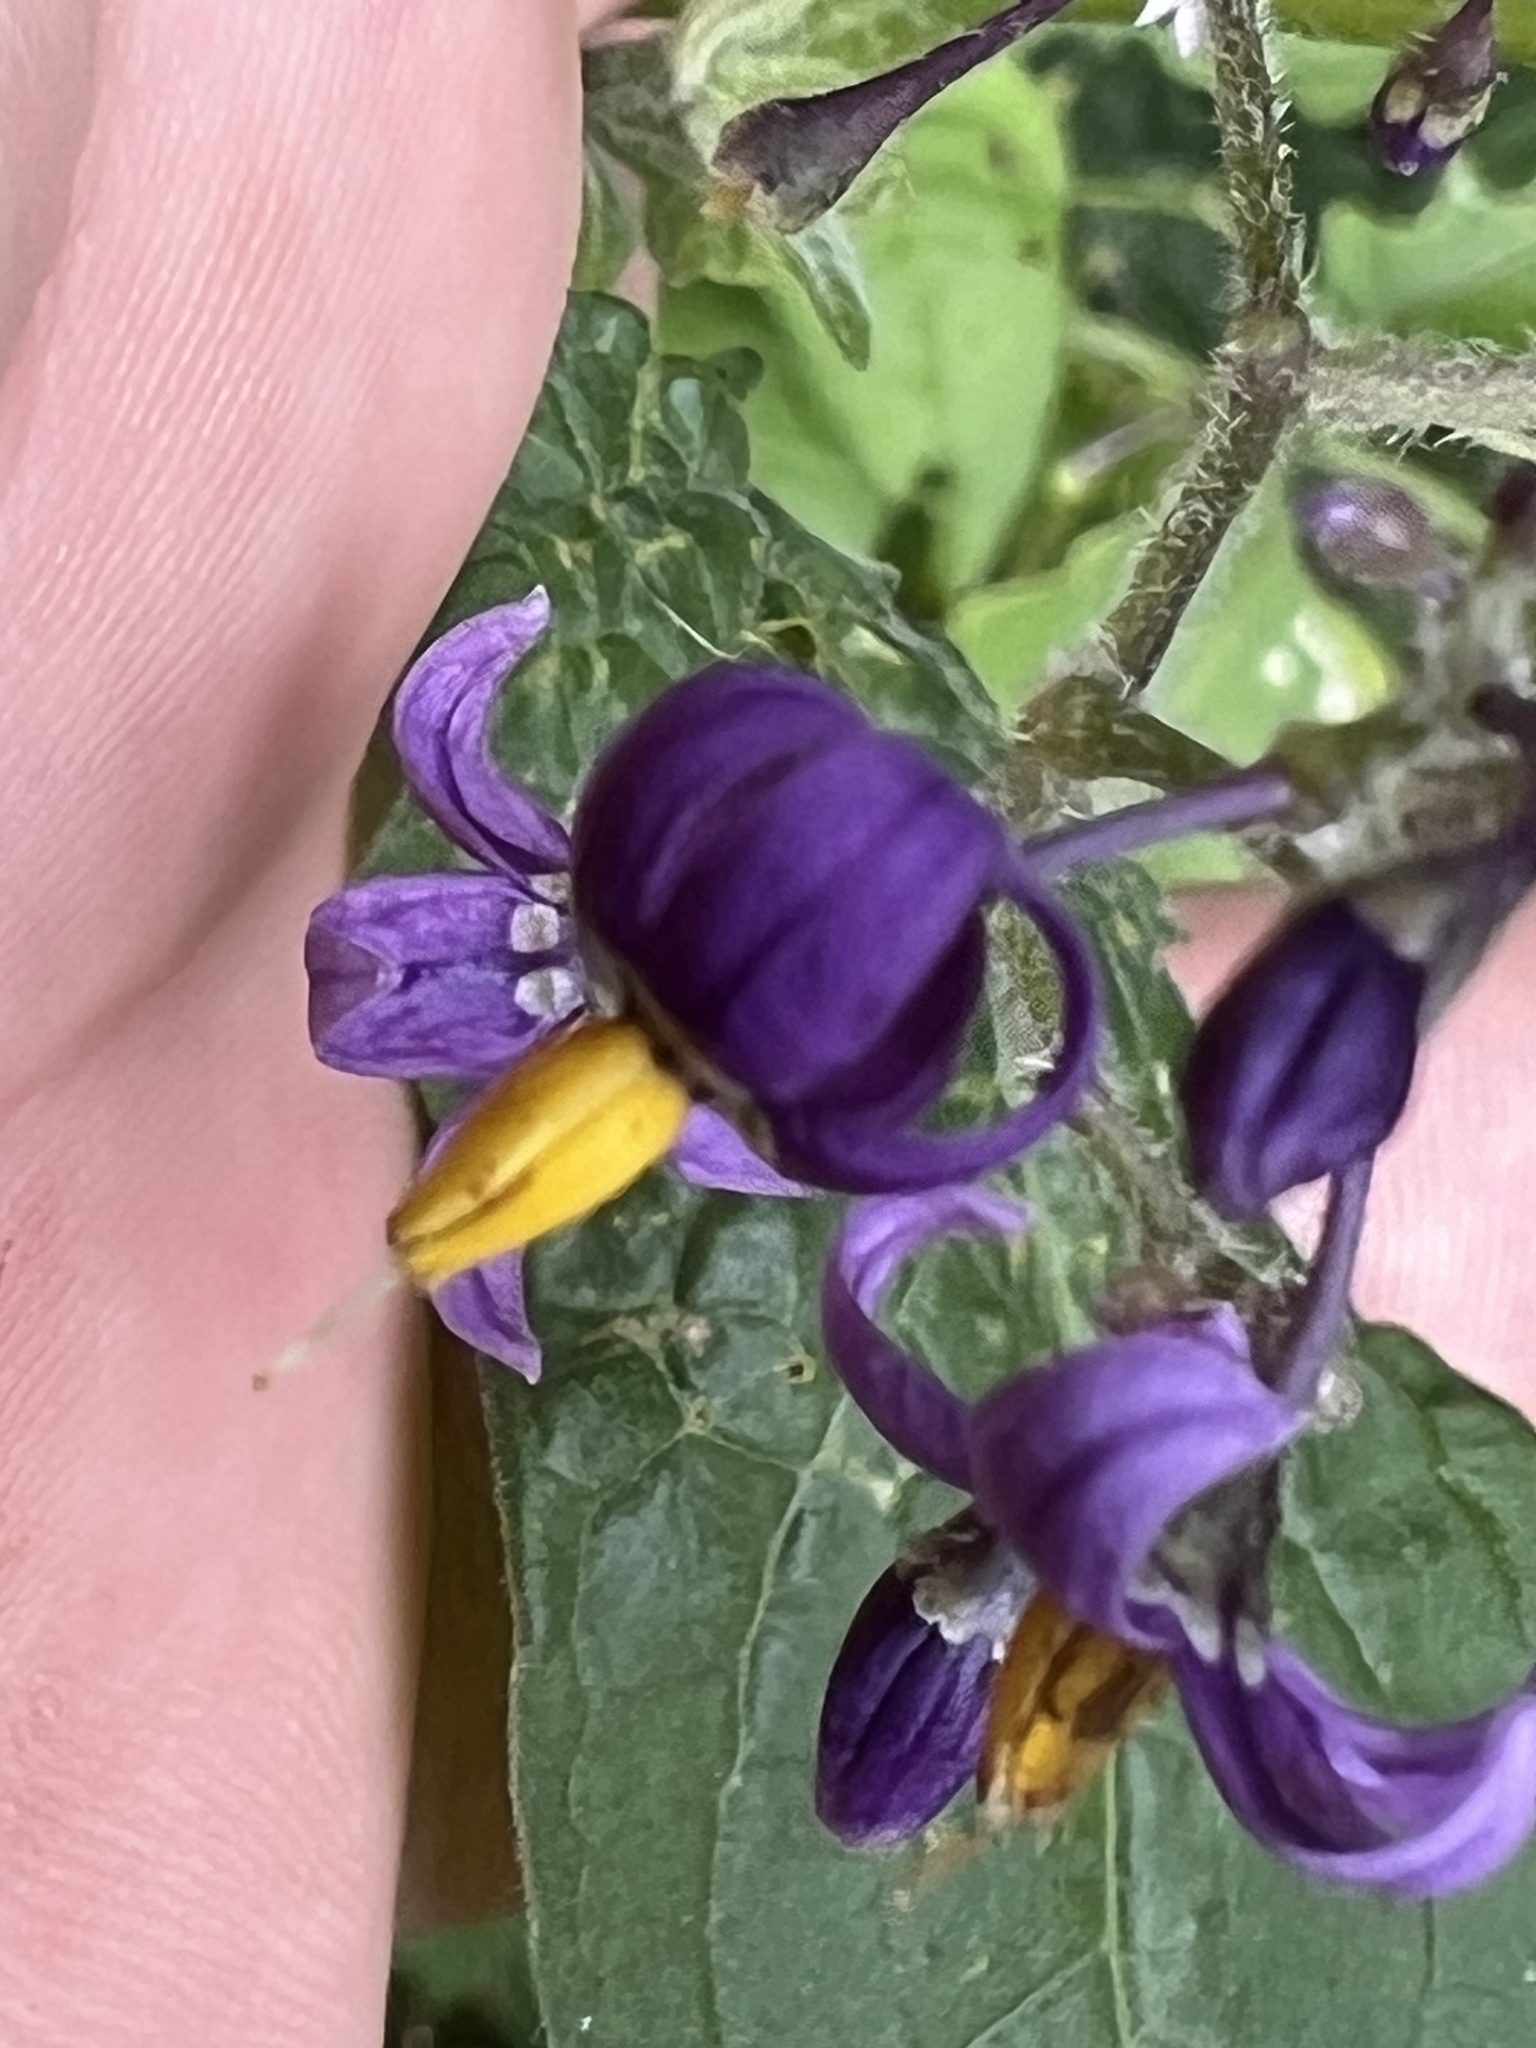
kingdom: Plantae
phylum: Tracheophyta
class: Magnoliopsida
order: Solanales
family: Solanaceae
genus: Solanum
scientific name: Solanum dulcamara
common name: Climbing nightshade
